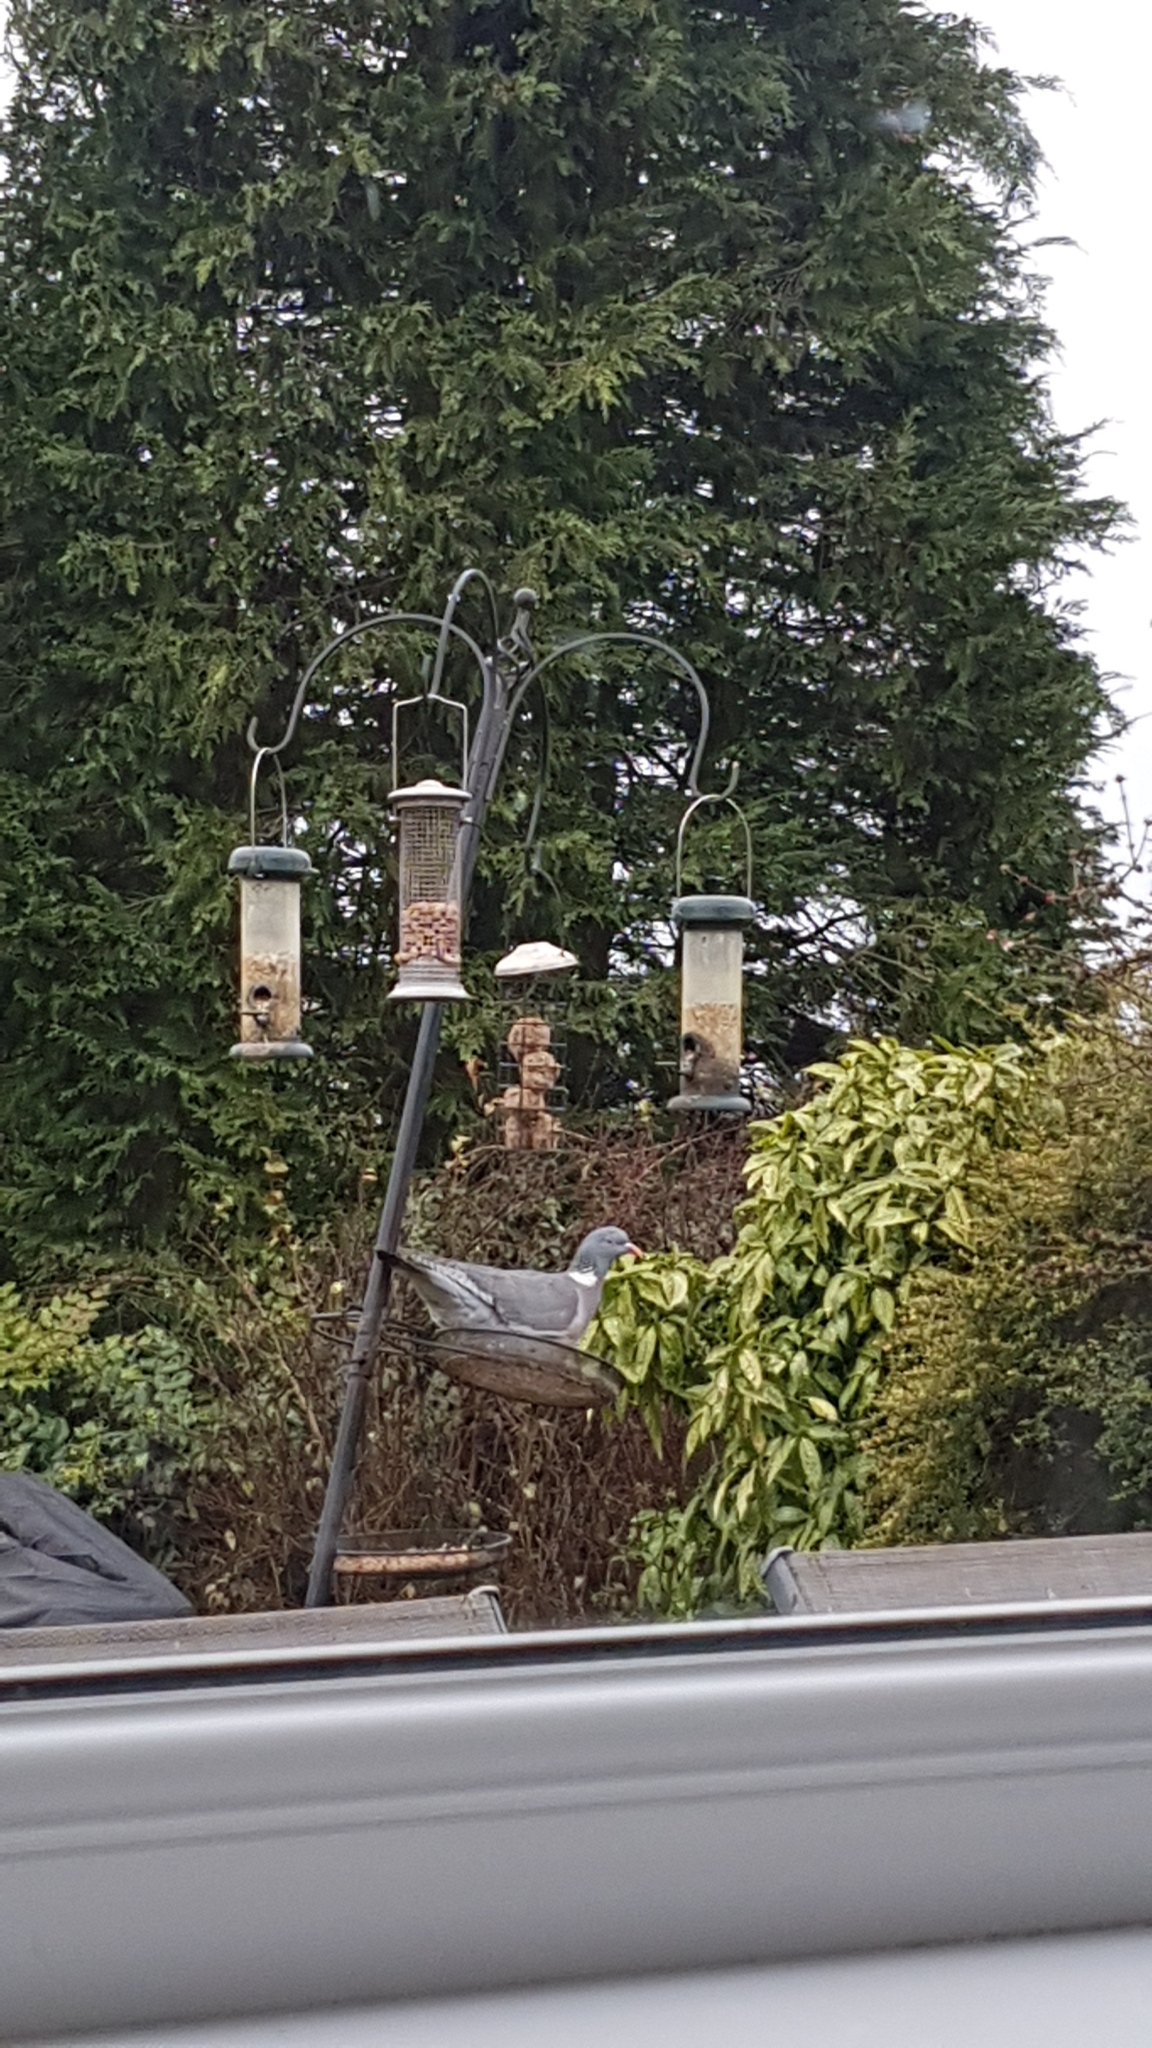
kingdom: Animalia
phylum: Chordata
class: Aves
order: Columbiformes
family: Columbidae
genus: Columba
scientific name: Columba palumbus
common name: Common wood pigeon
